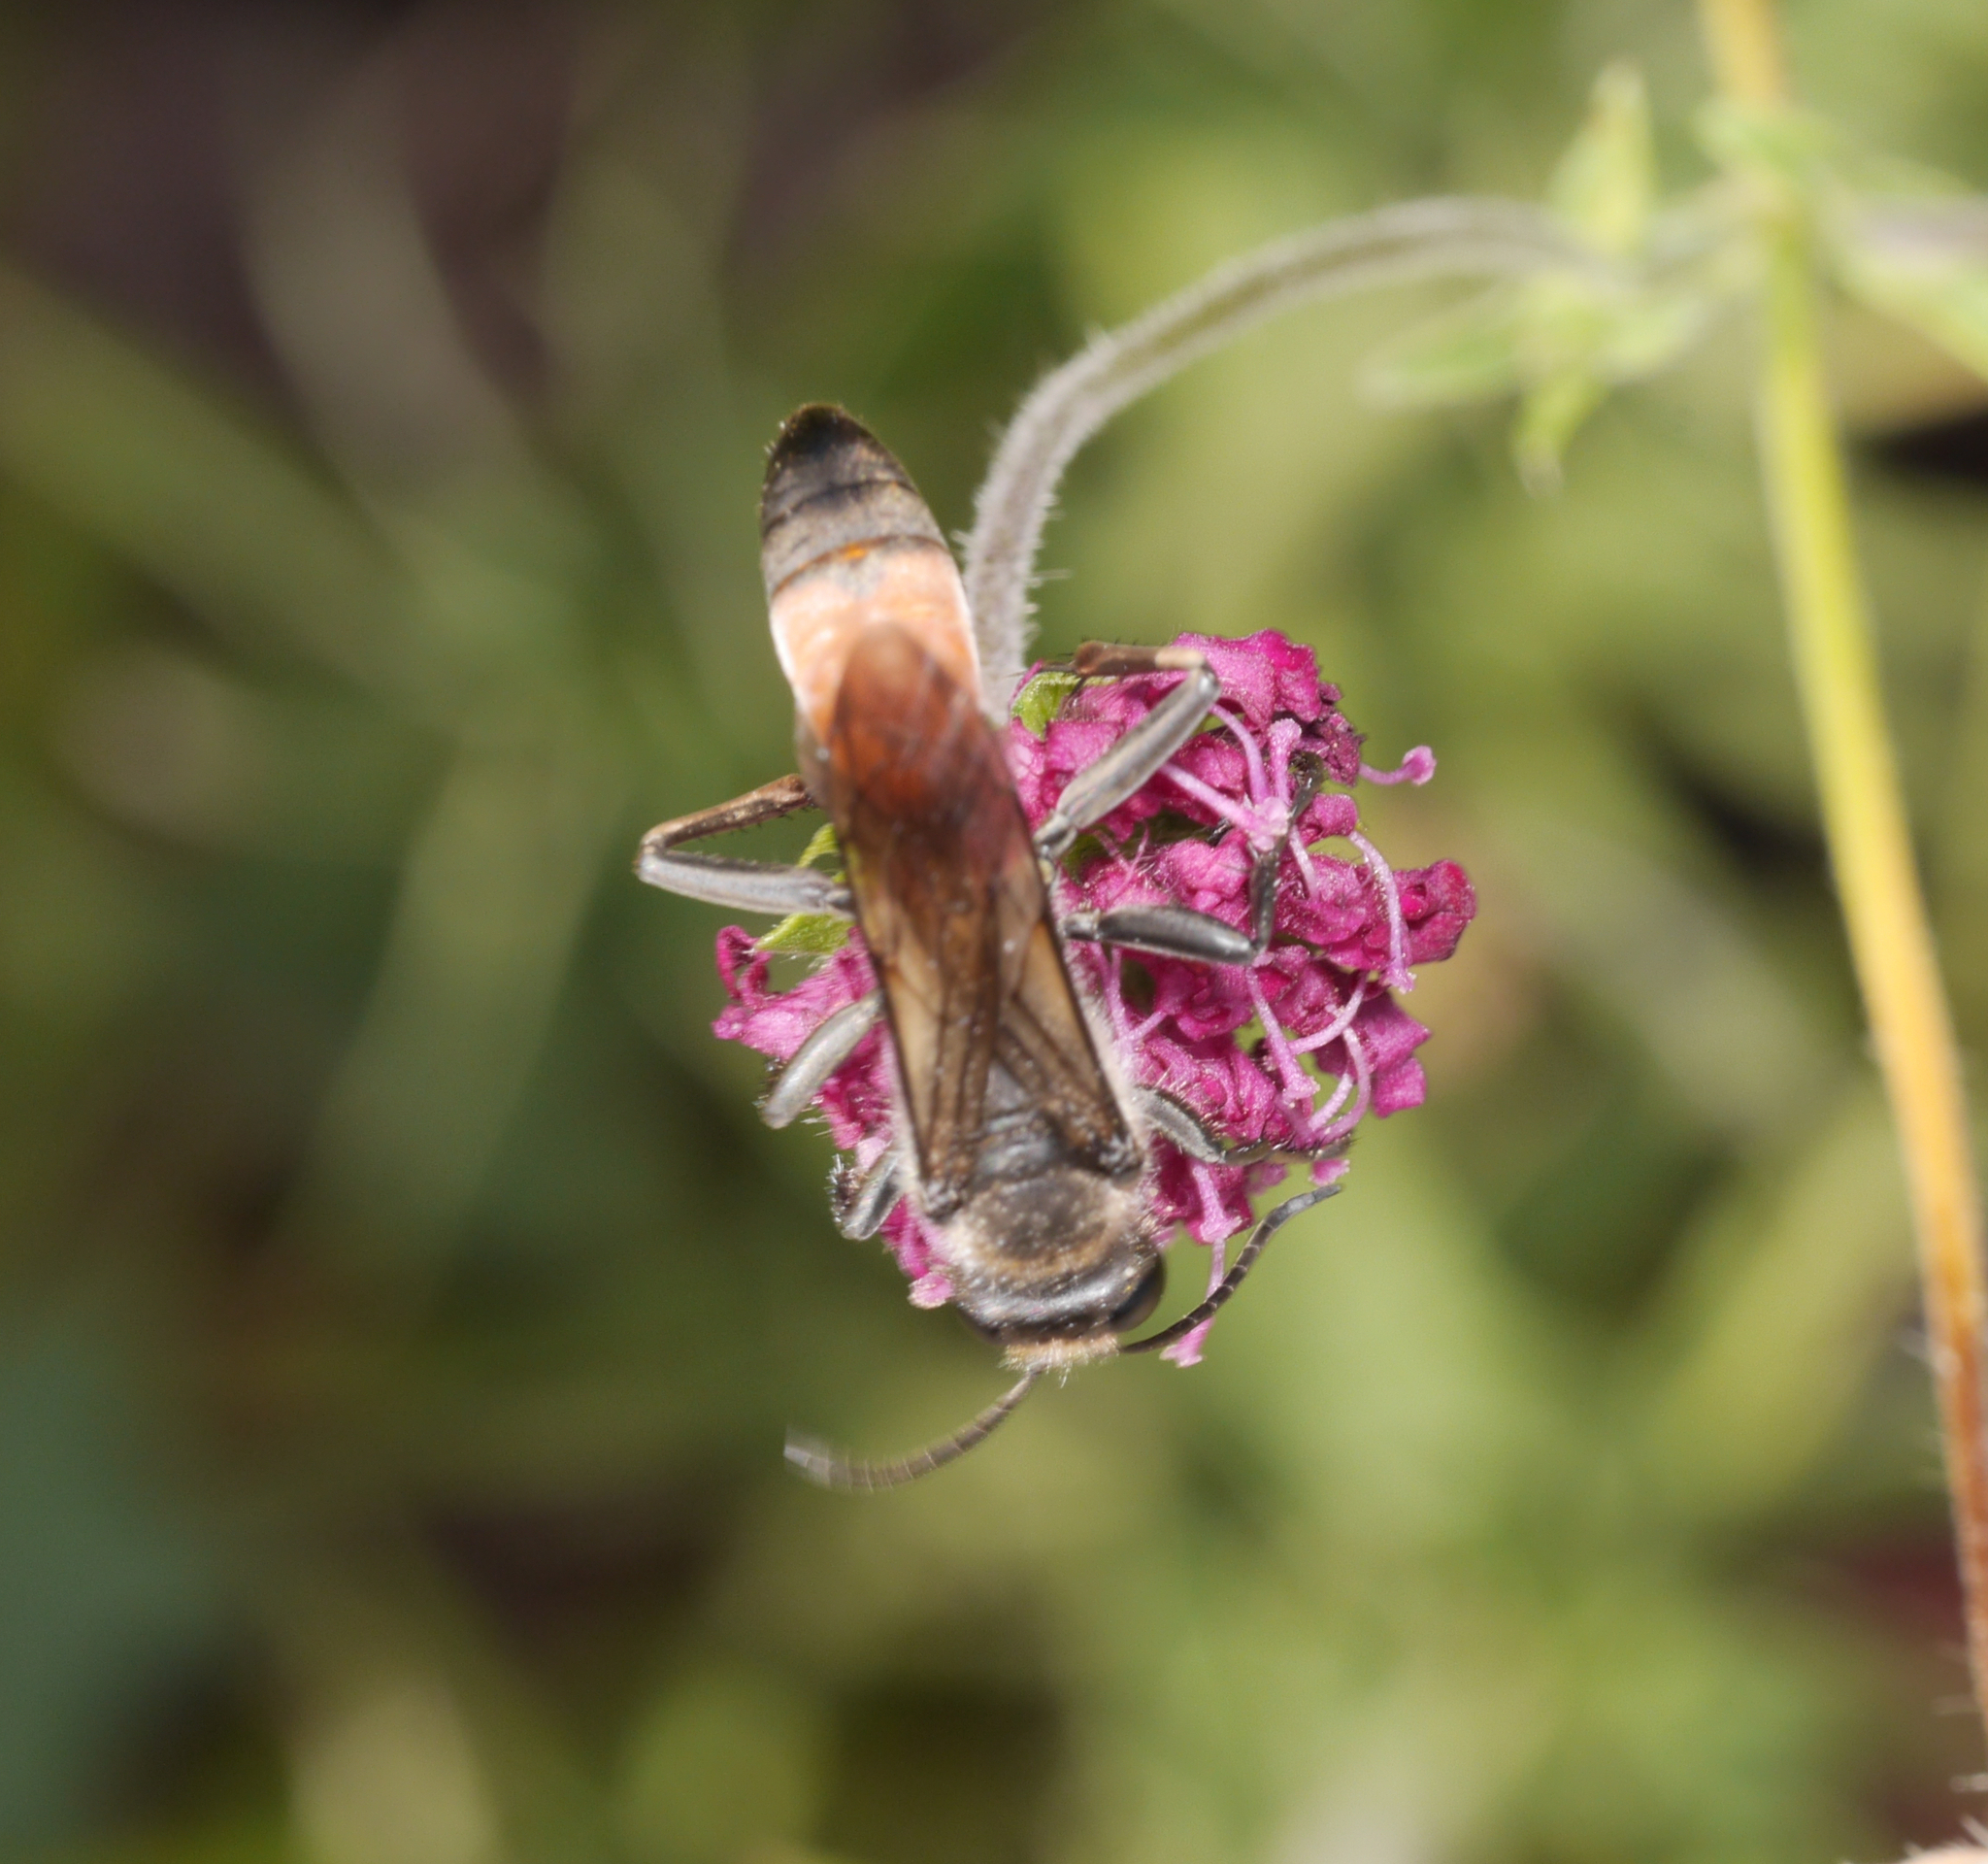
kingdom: Animalia
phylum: Arthropoda
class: Insecta
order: Hymenoptera
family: Sphecidae
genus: Sphex
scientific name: Sphex funerarius
